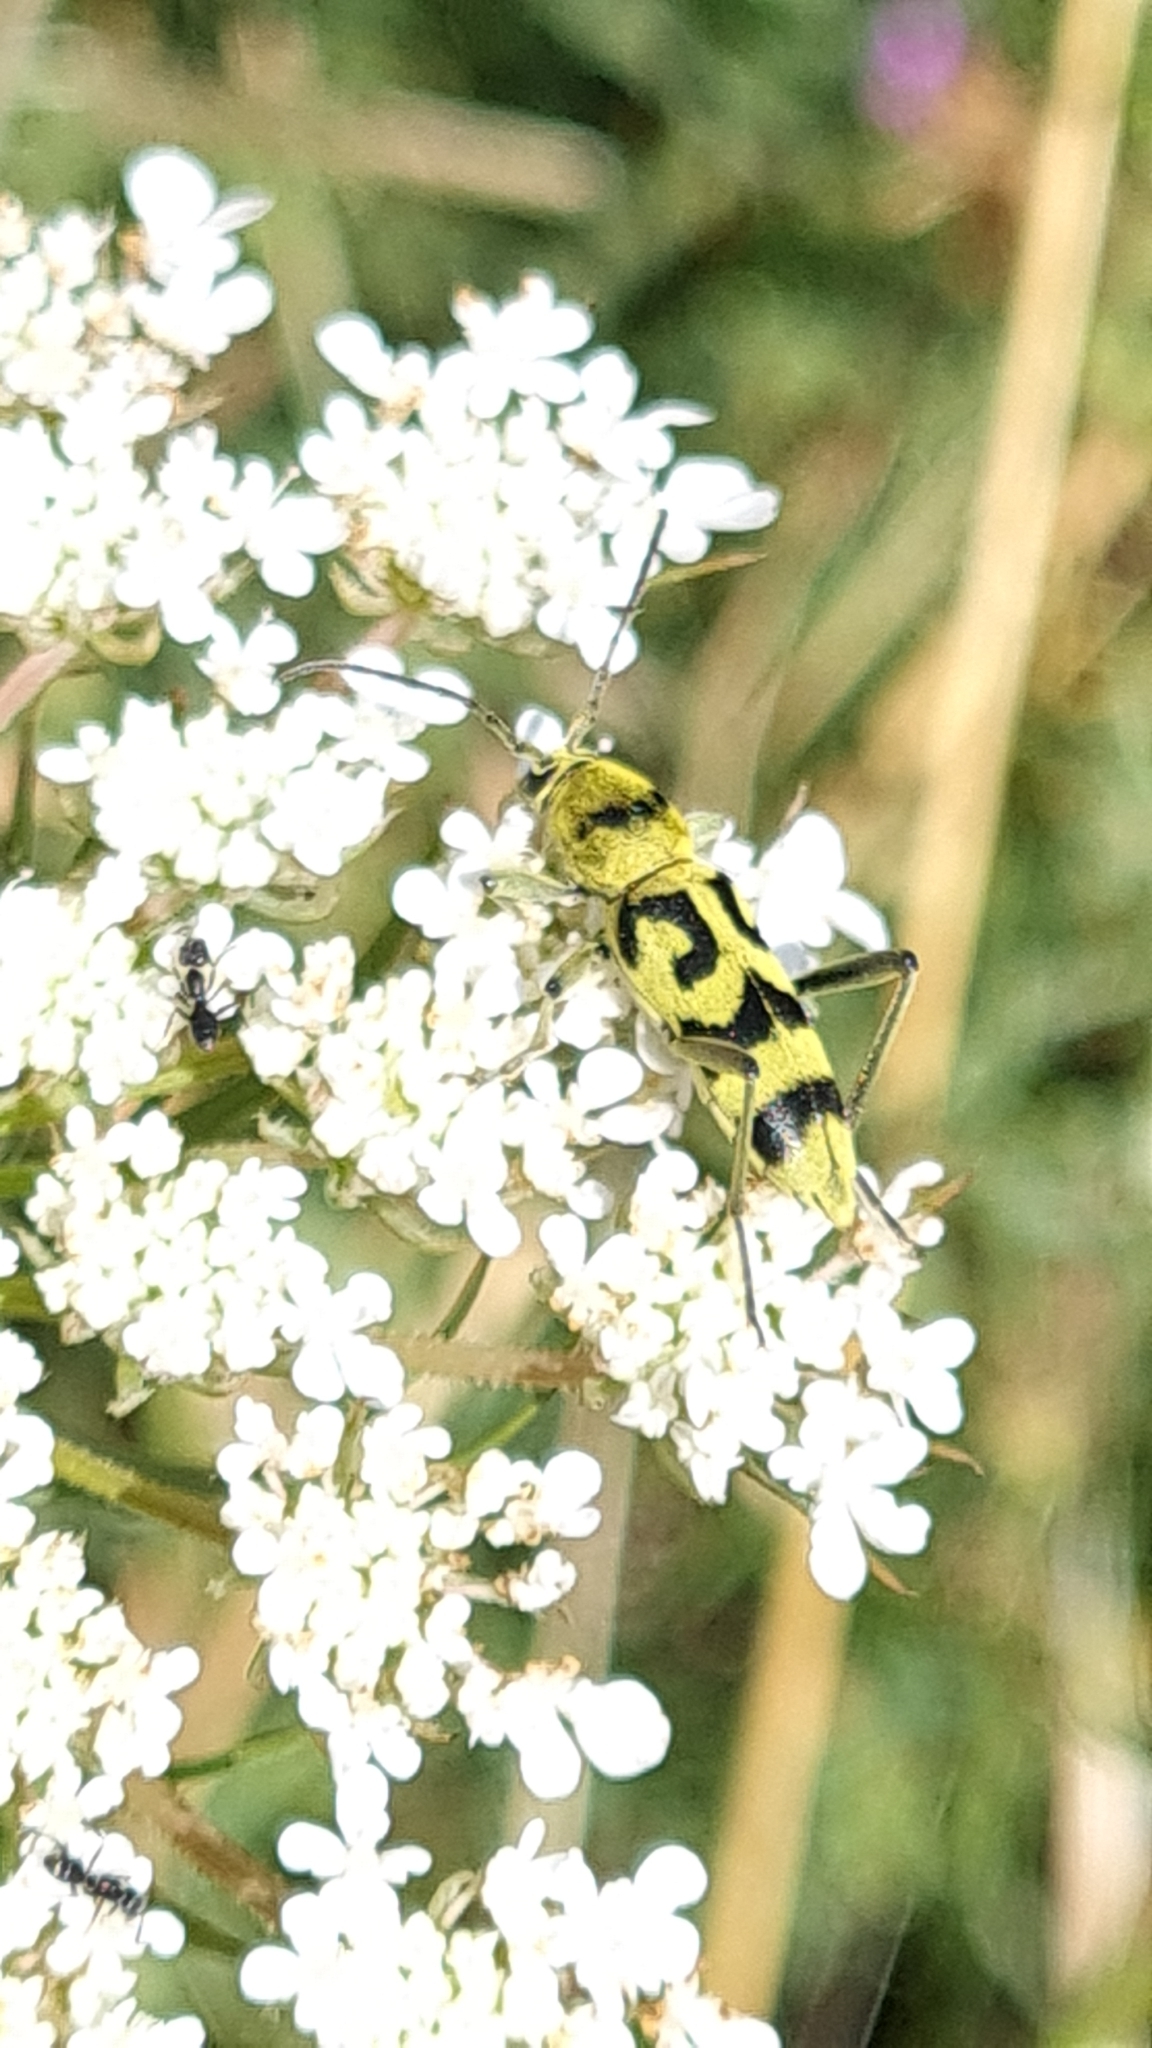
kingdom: Animalia
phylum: Arthropoda
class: Insecta
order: Coleoptera
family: Cerambycidae
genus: Chlorophorus
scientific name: Chlorophorus varius
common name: Grape wood borer
